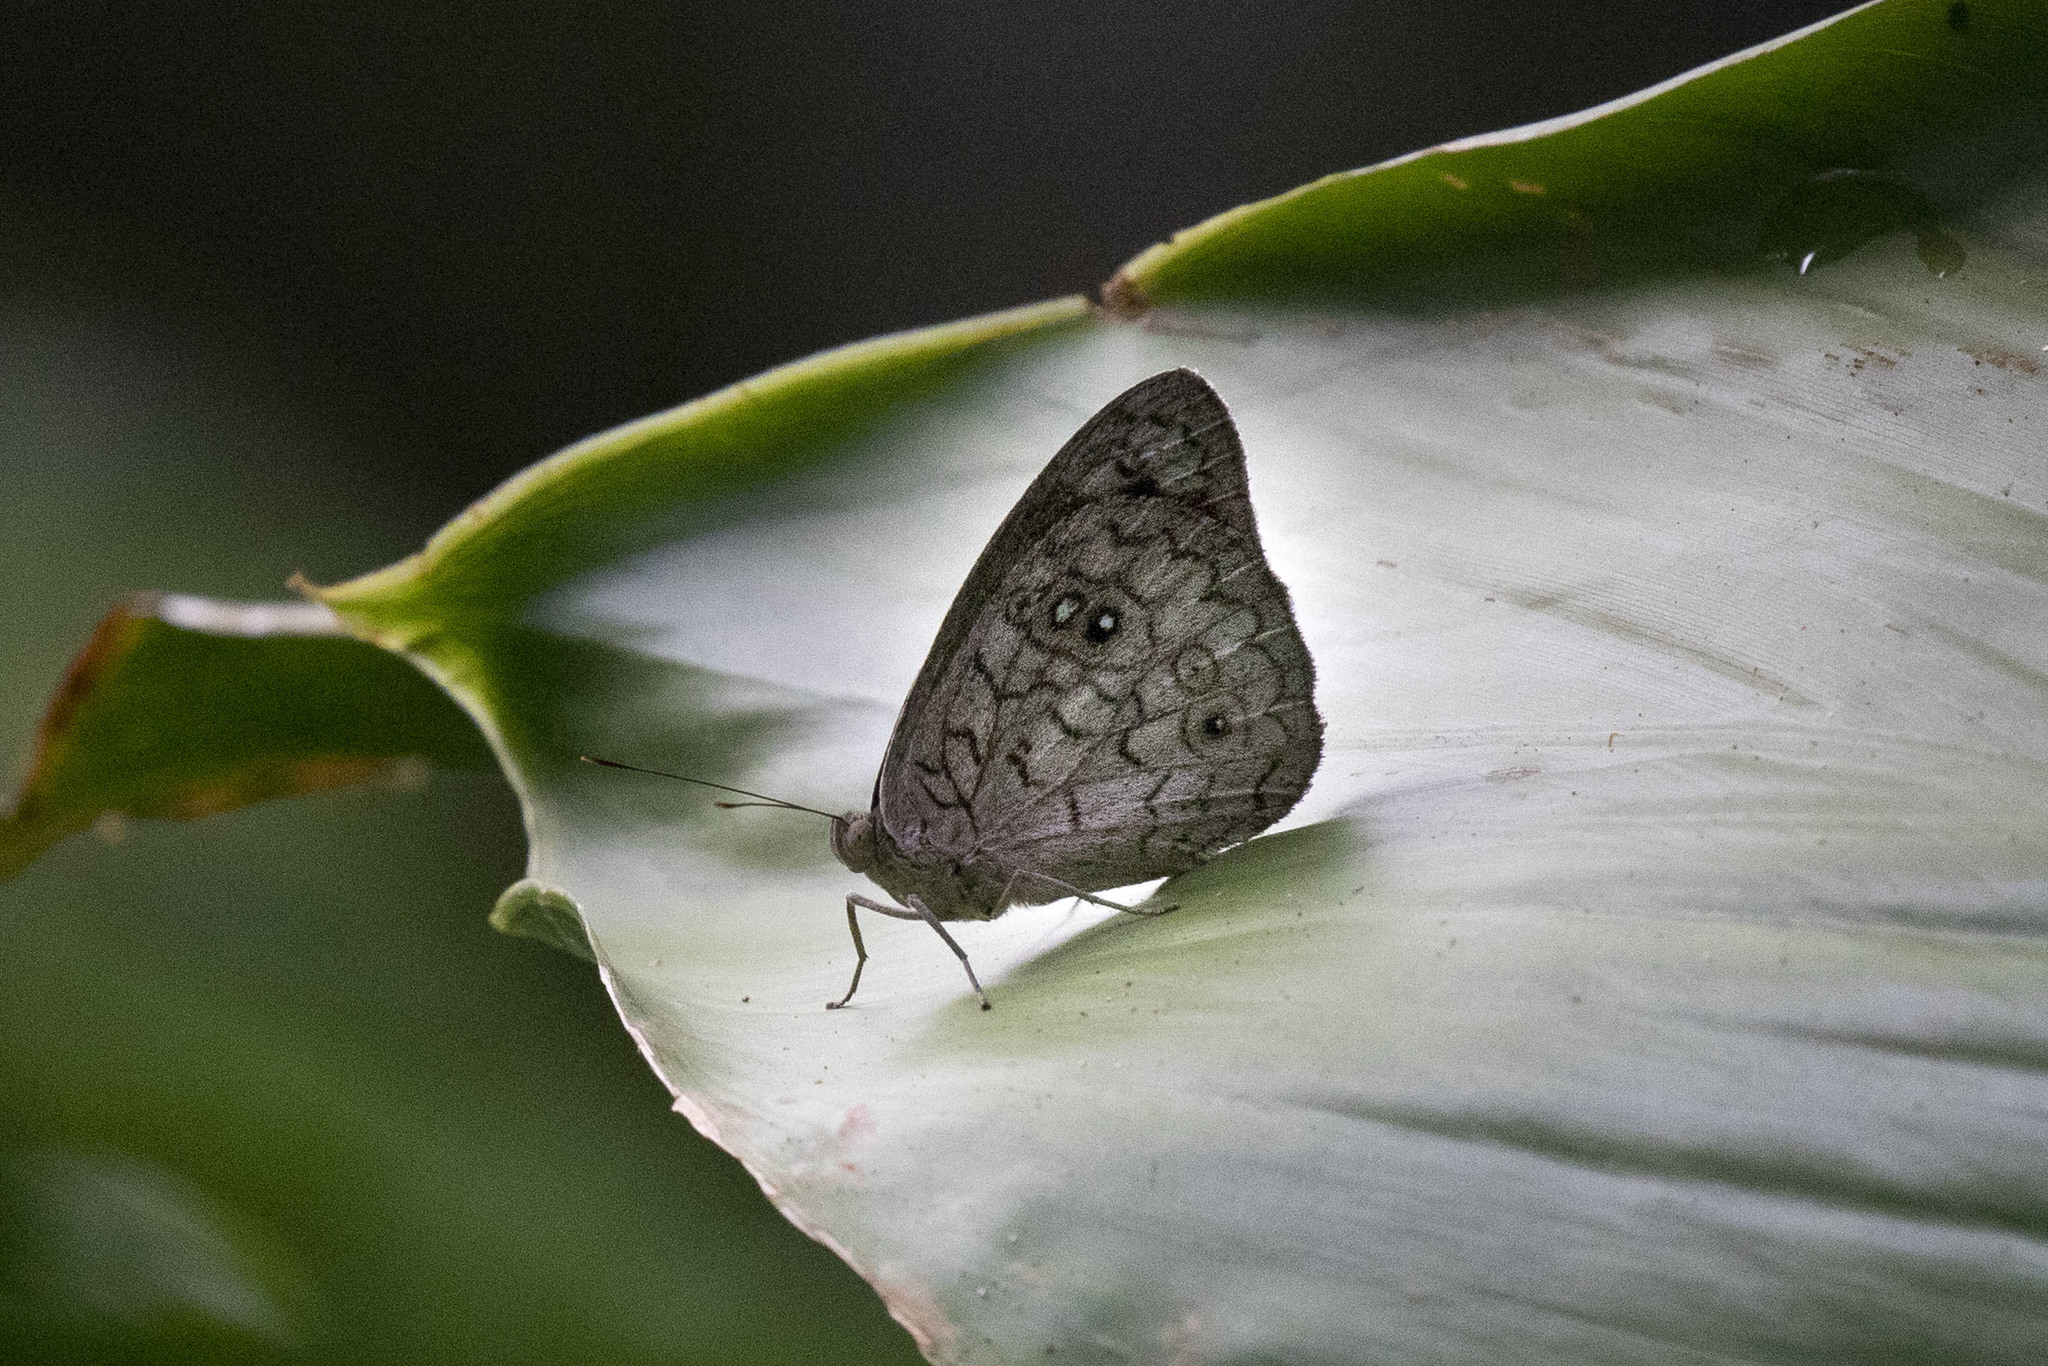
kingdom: Animalia
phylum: Arthropoda
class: Insecta
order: Lepidoptera
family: Nymphalidae
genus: Eunica
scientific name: Eunica clythia
